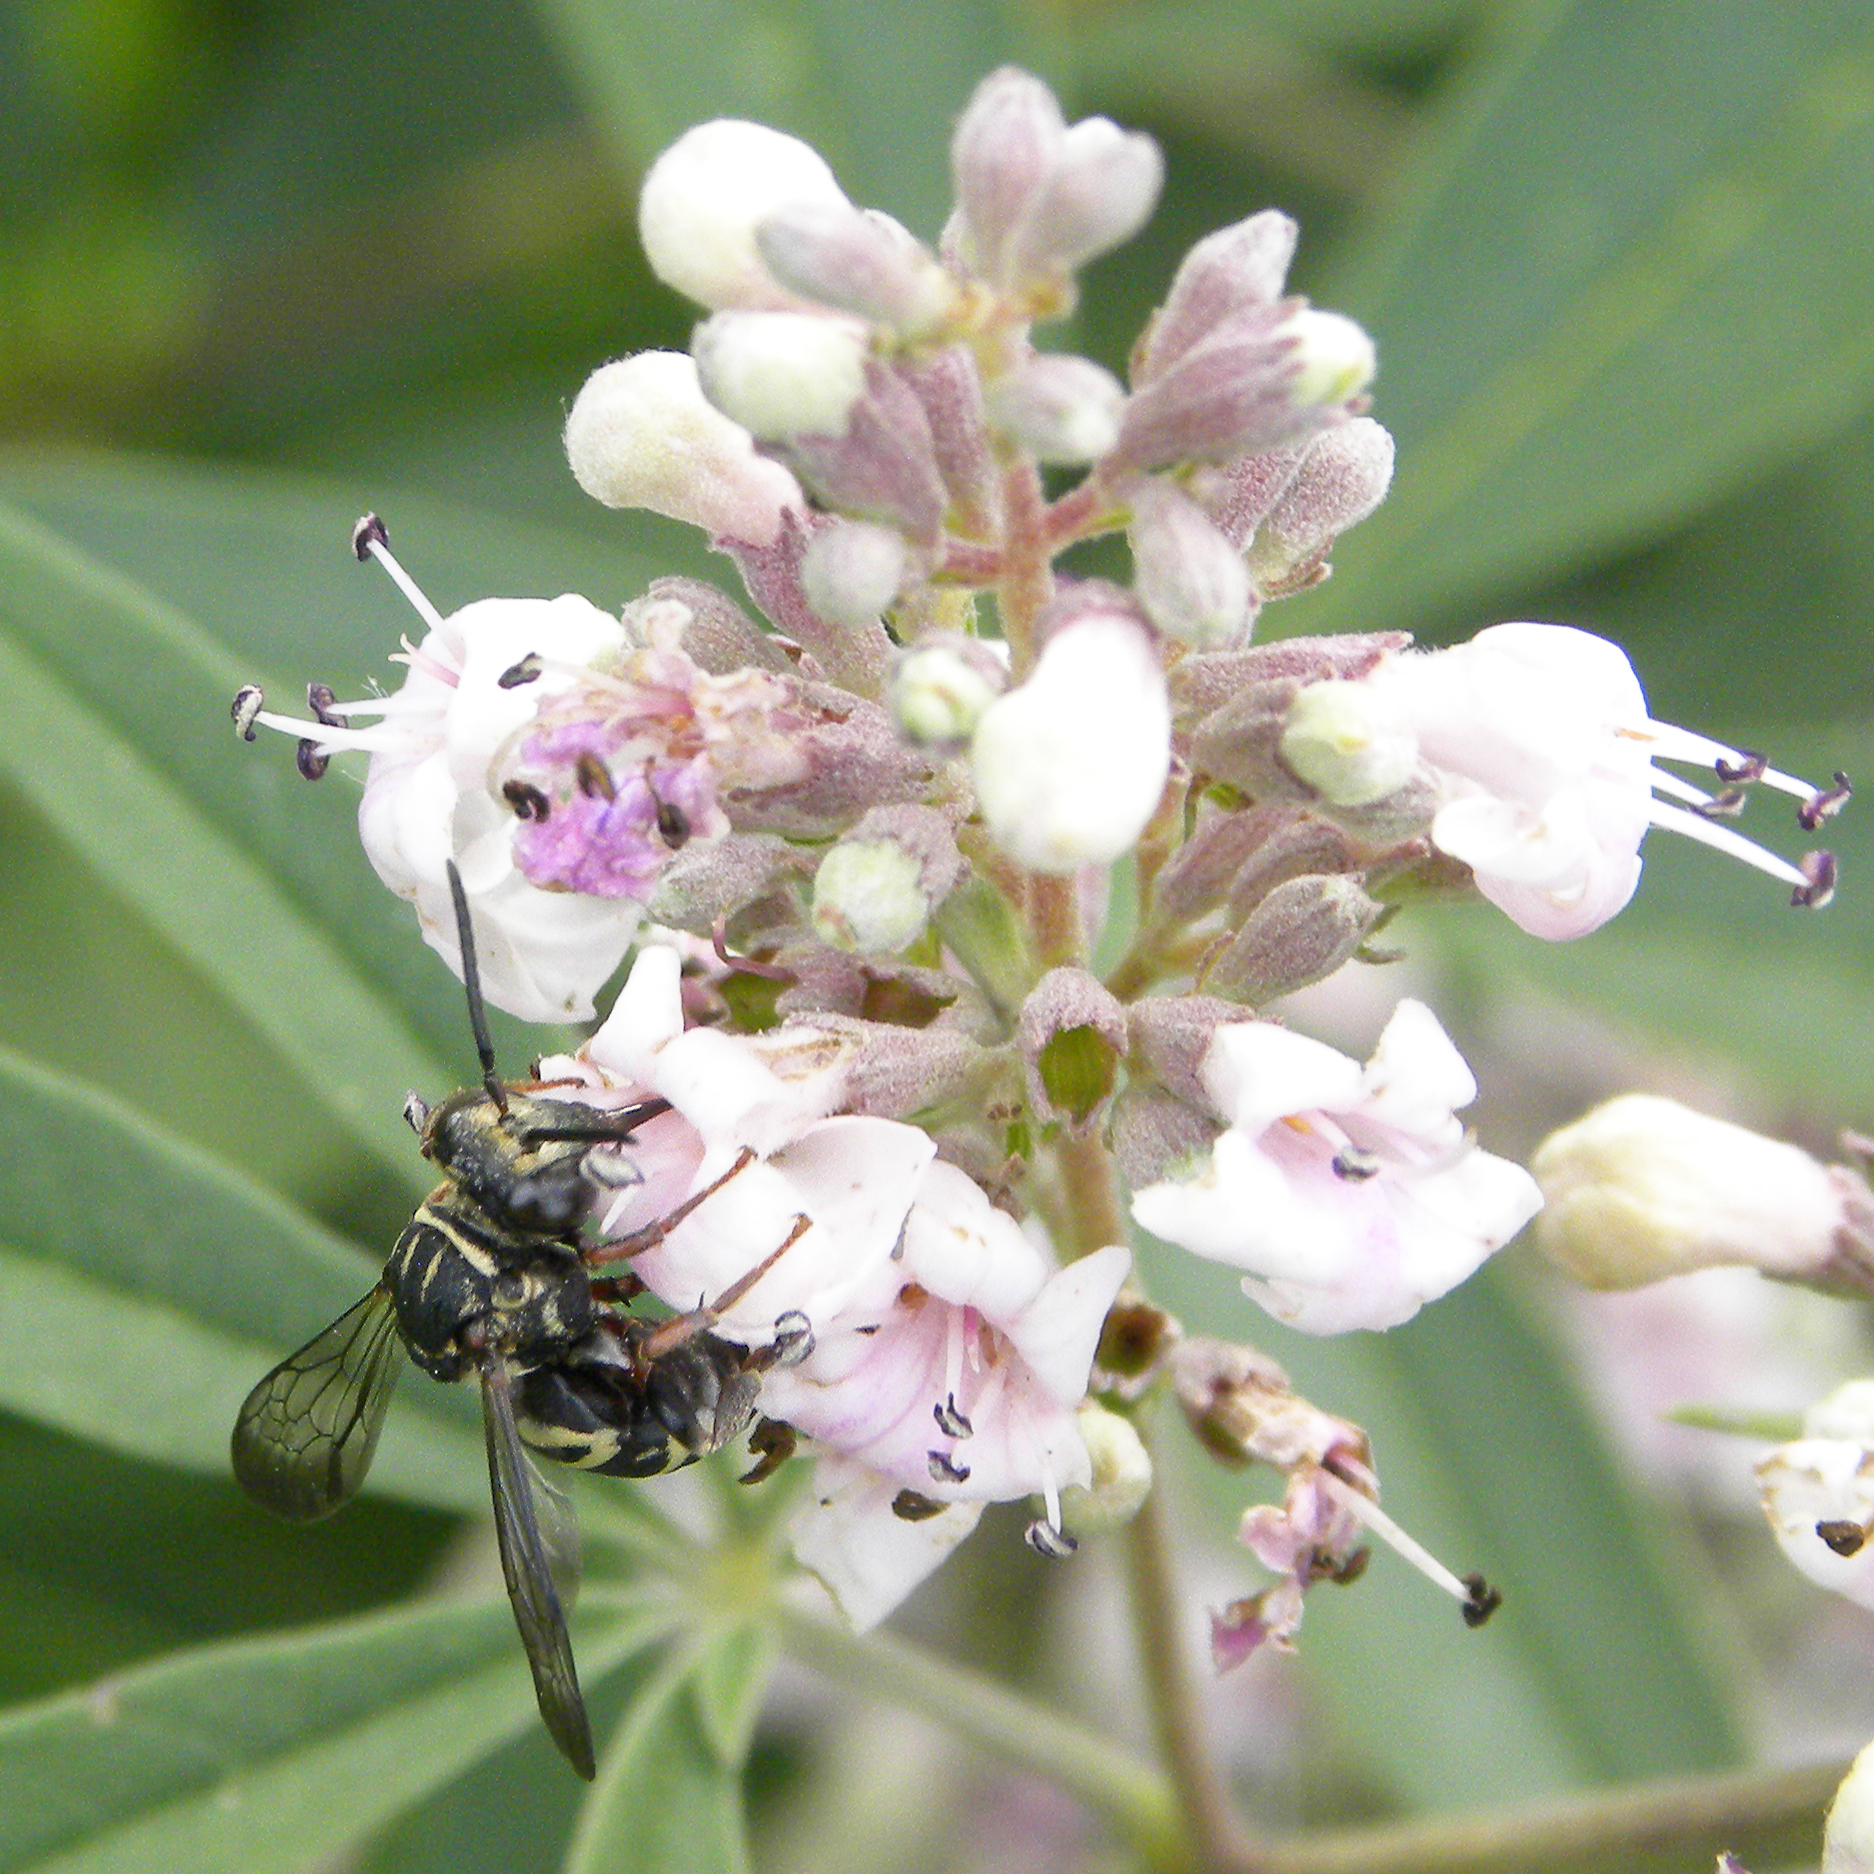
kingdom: Animalia
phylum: Arthropoda
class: Insecta
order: Hymenoptera
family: Apidae
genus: Triepeolus
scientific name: Triepeolus
